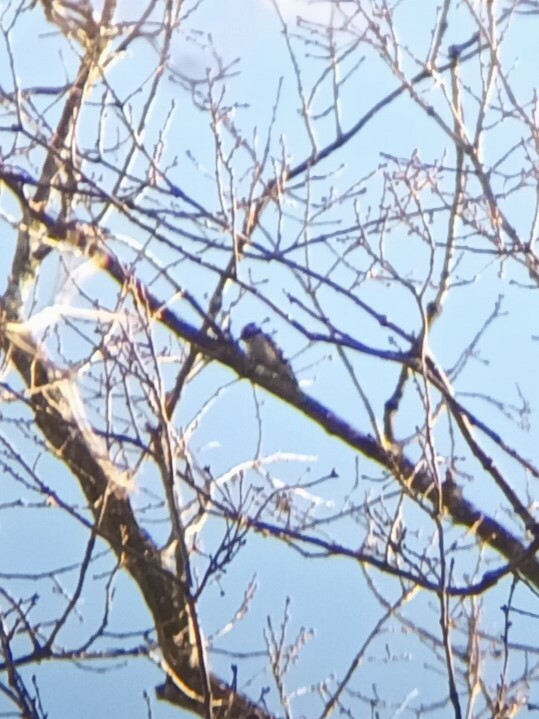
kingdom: Animalia
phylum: Chordata
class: Aves
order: Piciformes
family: Picidae
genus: Dryobates
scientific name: Dryobates minor
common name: Lesser spotted woodpecker
